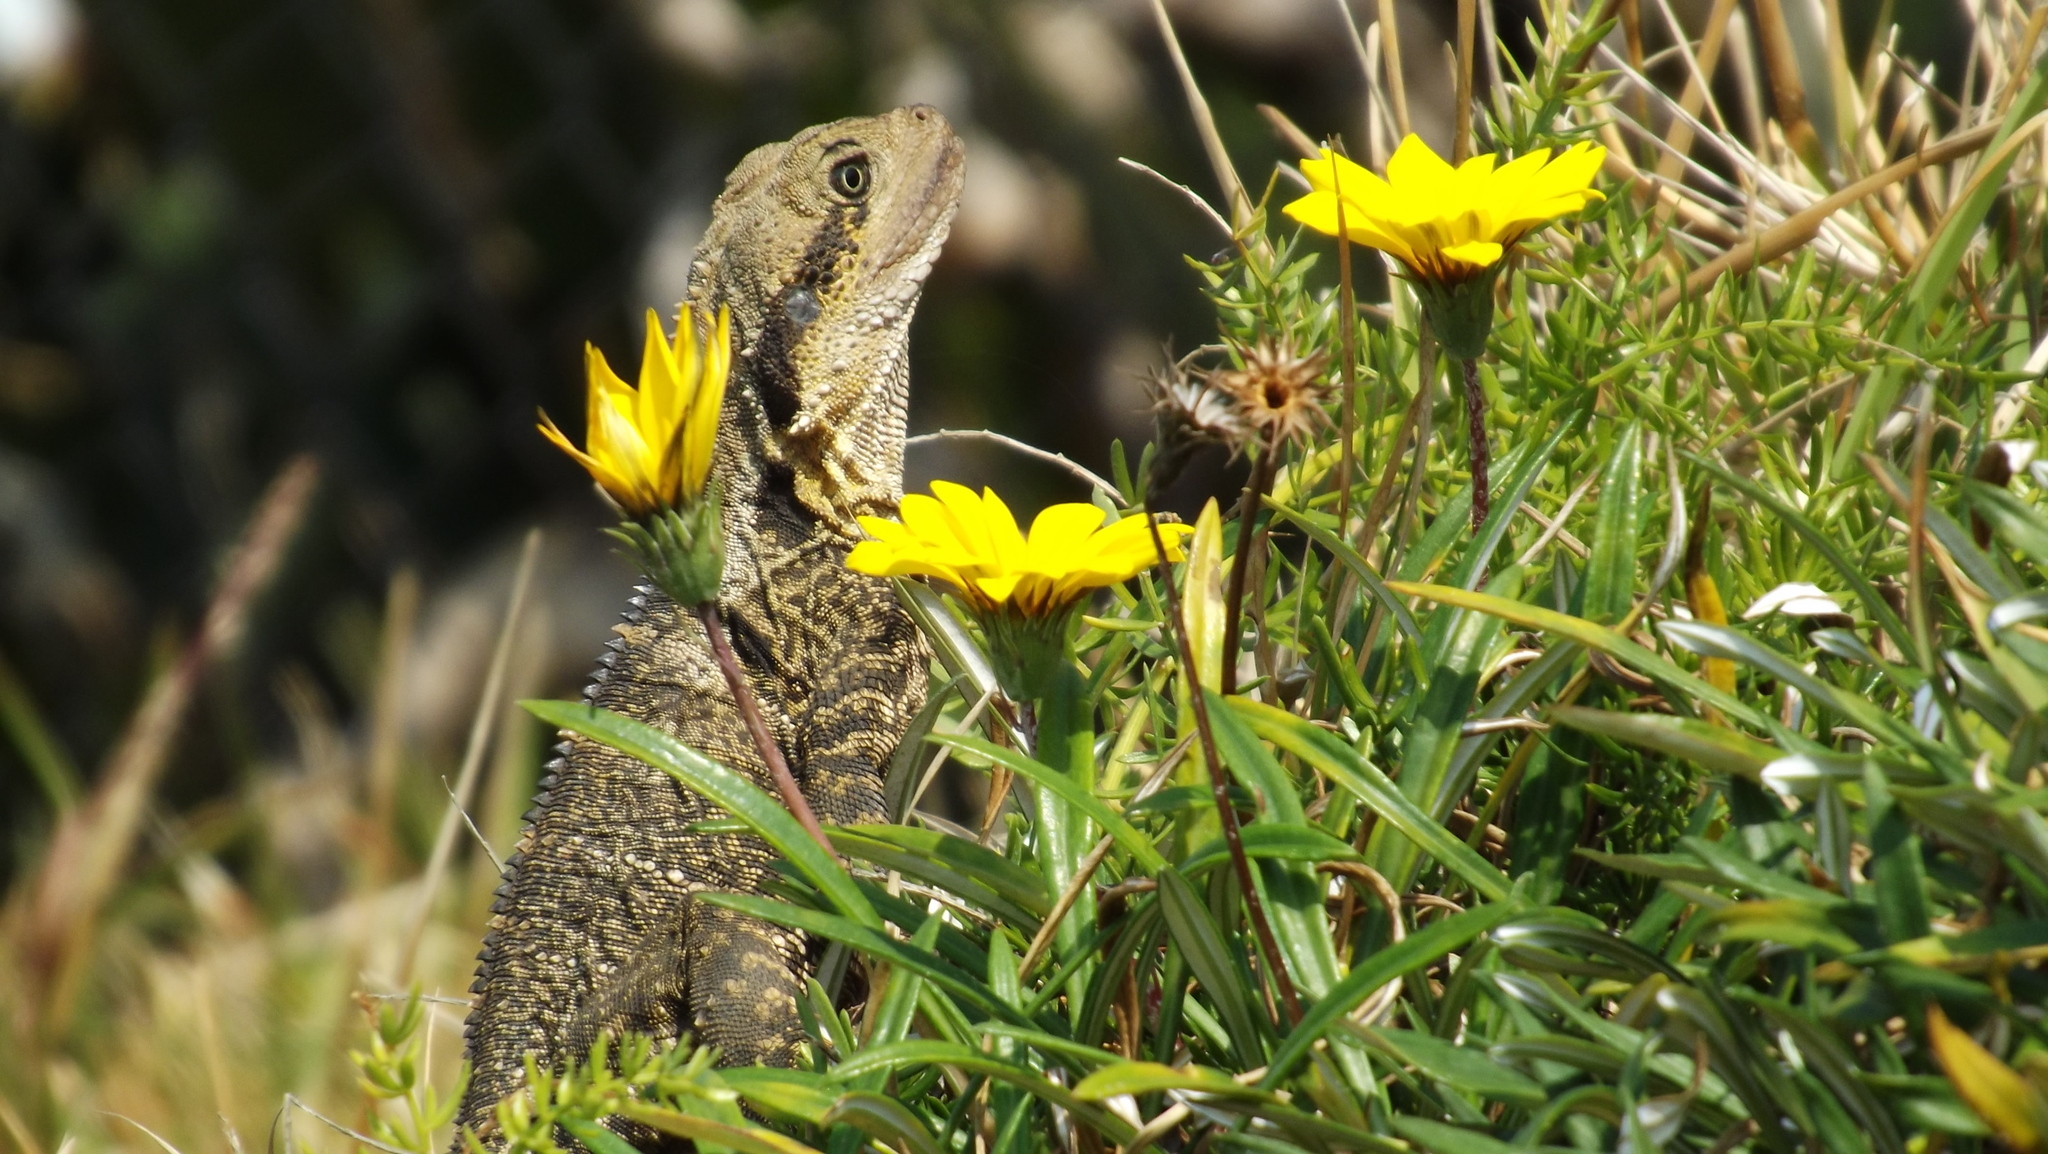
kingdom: Animalia
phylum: Chordata
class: Squamata
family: Agamidae
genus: Intellagama
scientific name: Intellagama lesueurii
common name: Eastern water dragon
